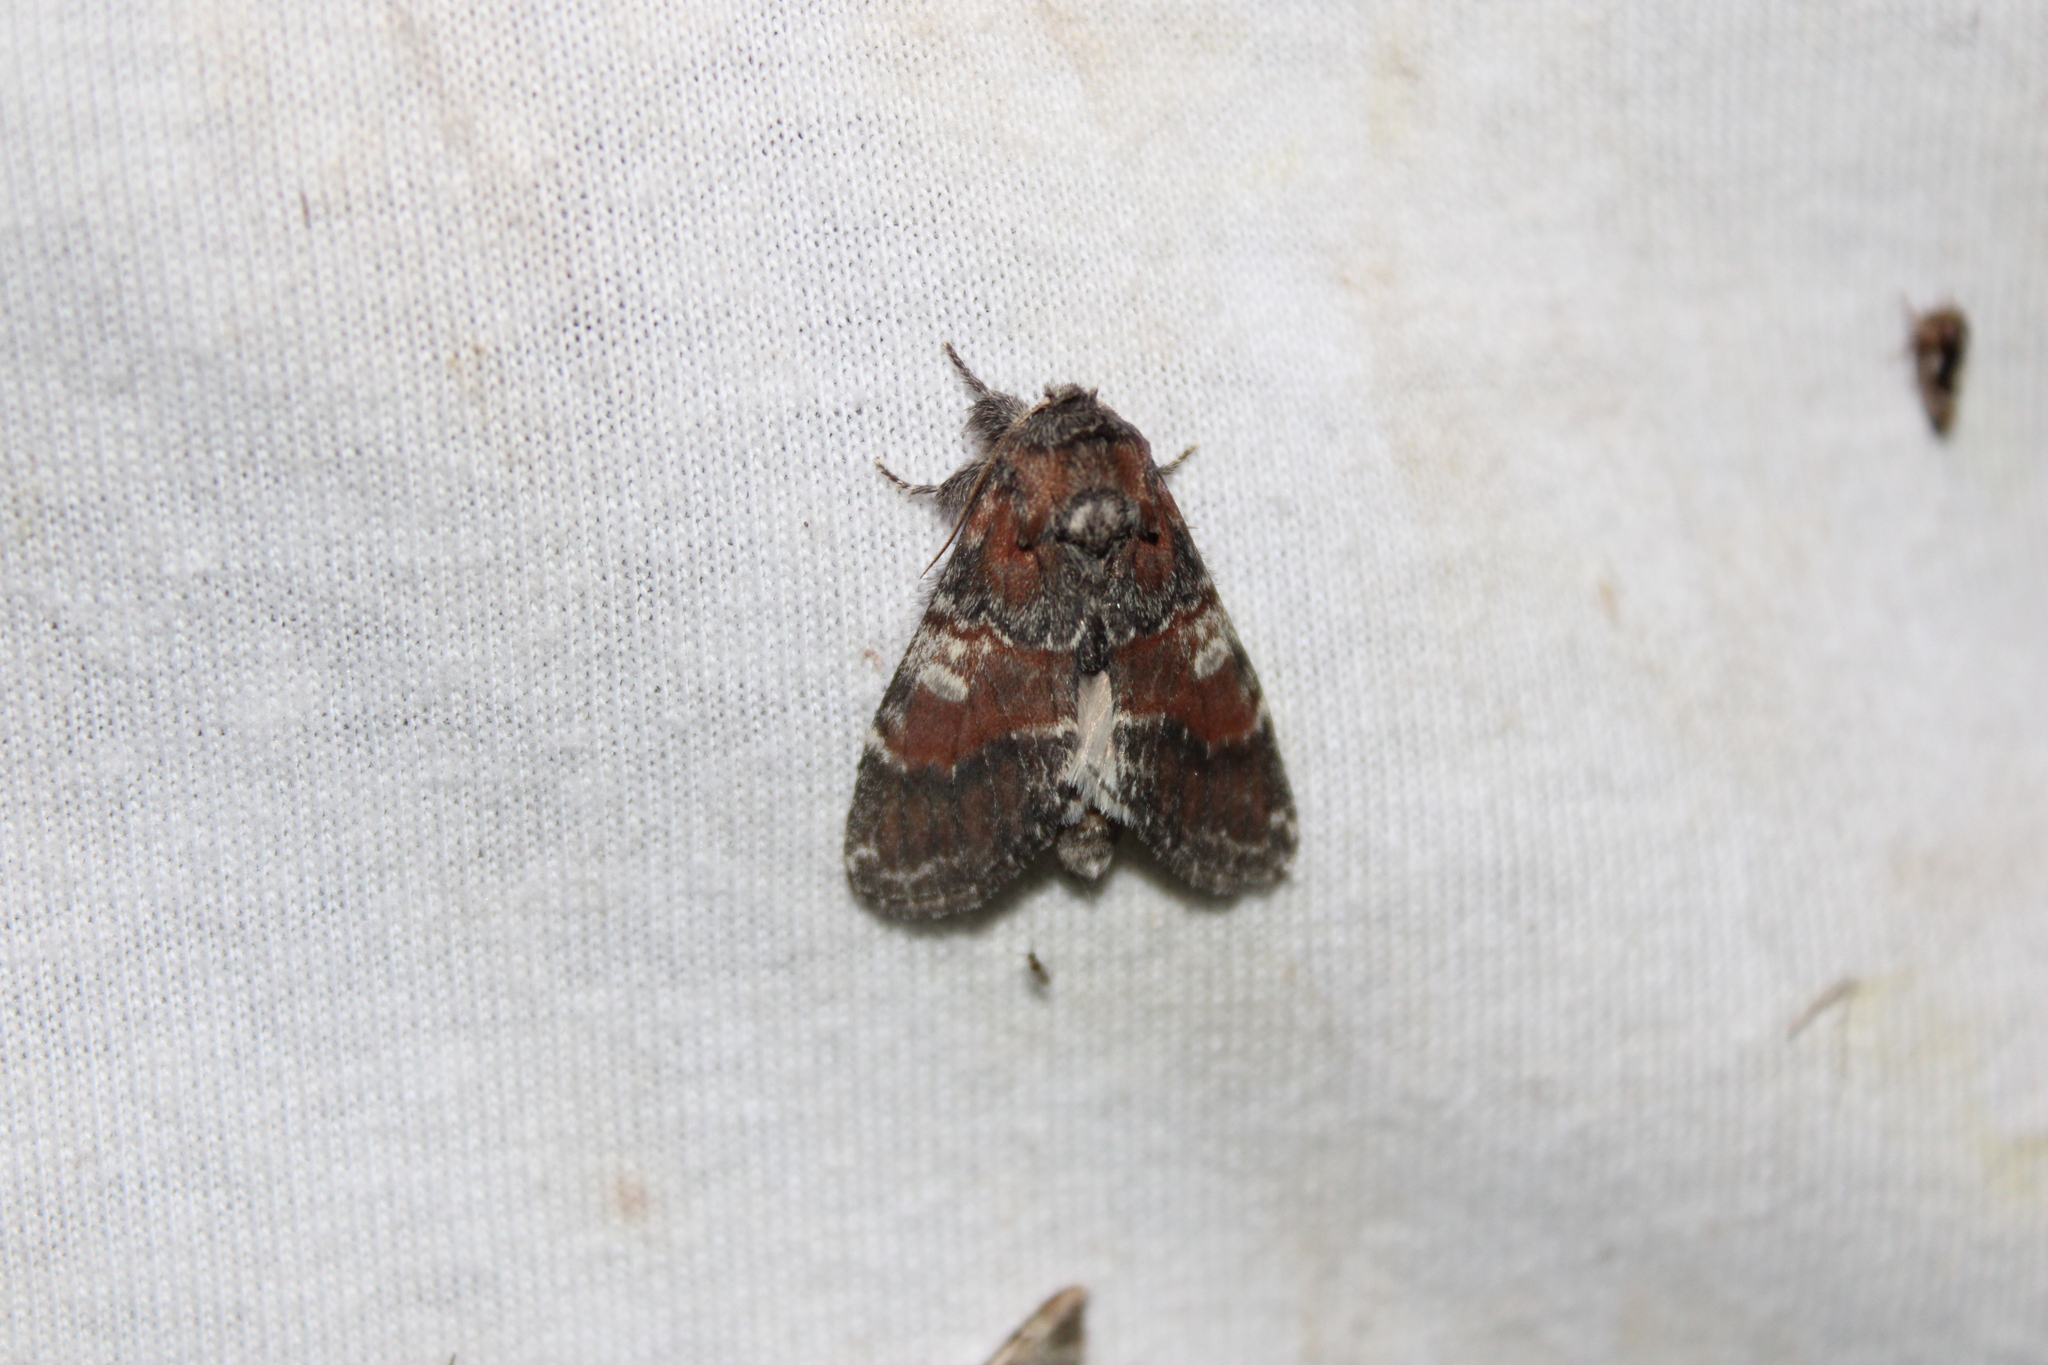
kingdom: Animalia
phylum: Arthropoda
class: Insecta
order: Lepidoptera
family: Notodontidae
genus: Peridea
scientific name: Peridea ferruginea
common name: Chocolate prominent
